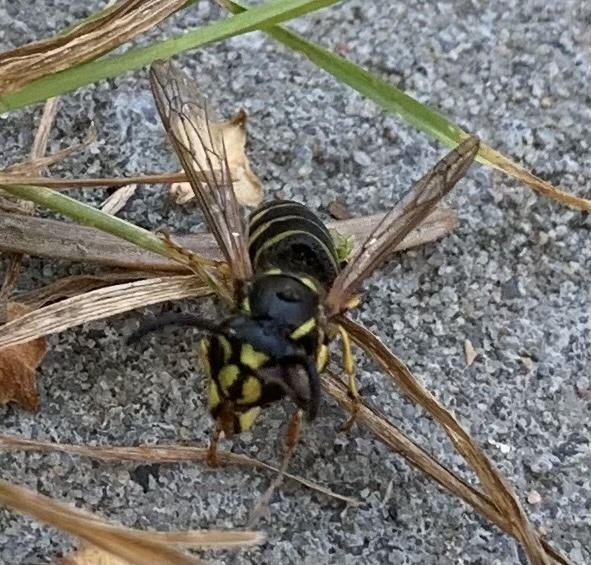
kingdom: Animalia
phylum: Arthropoda
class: Insecta
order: Hymenoptera
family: Vespidae
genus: Vespula
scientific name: Vespula vulgaris
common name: Common wasp
